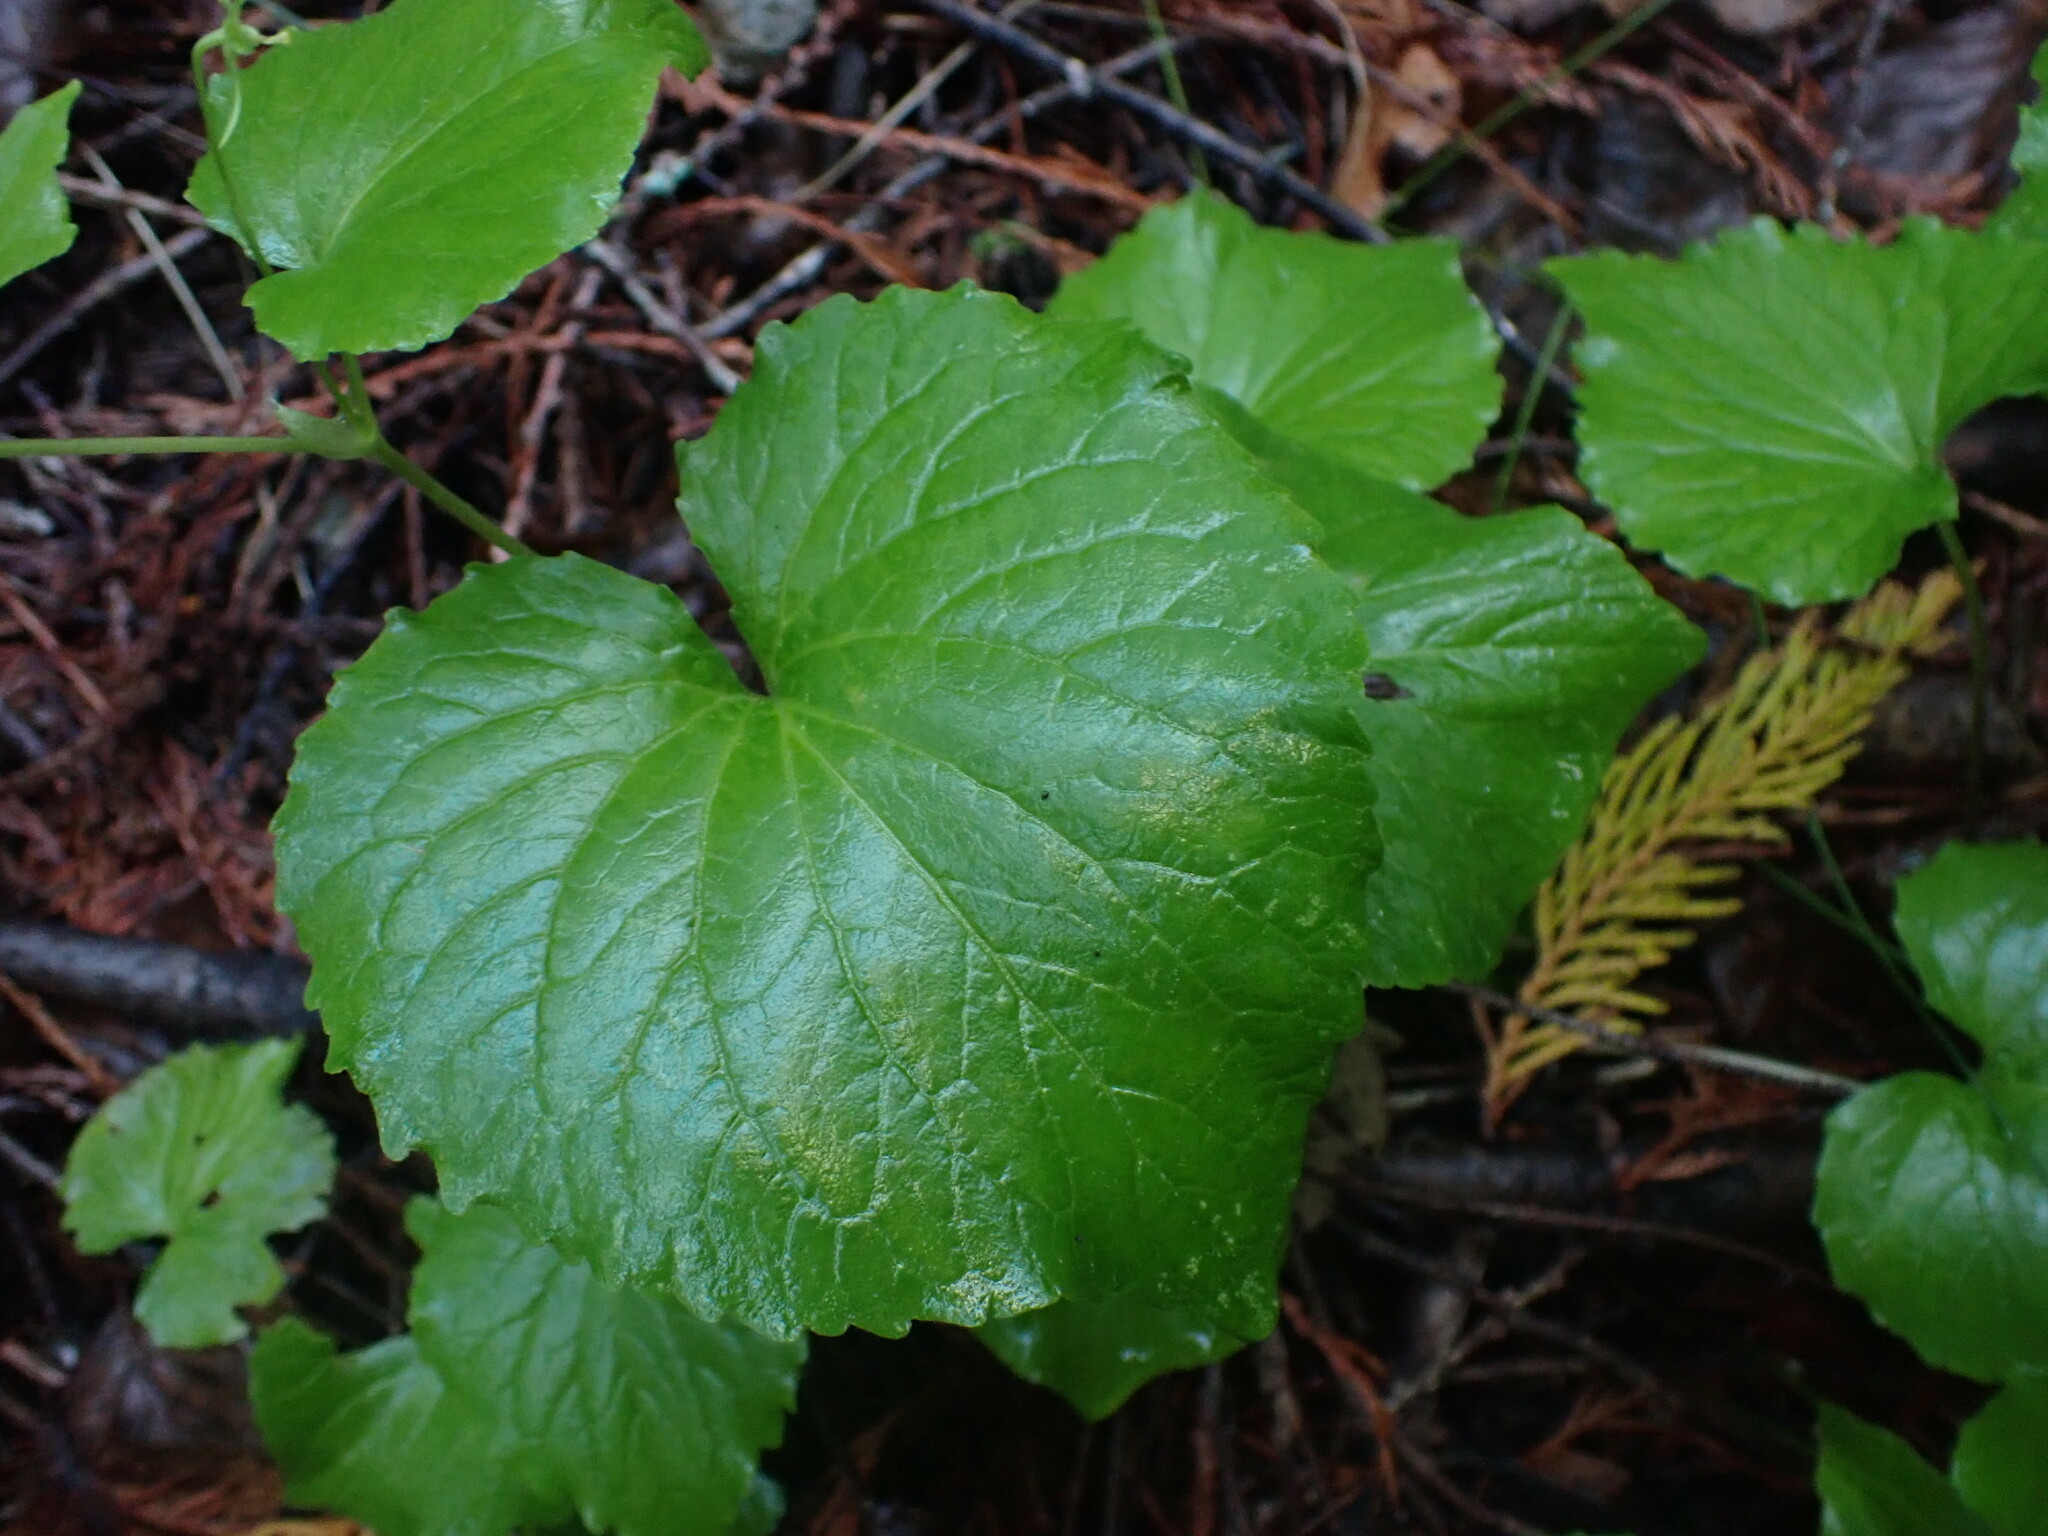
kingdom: Plantae
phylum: Tracheophyta
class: Magnoliopsida
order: Malpighiales
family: Violaceae
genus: Viola
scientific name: Viola canadensis
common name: Canada violet
